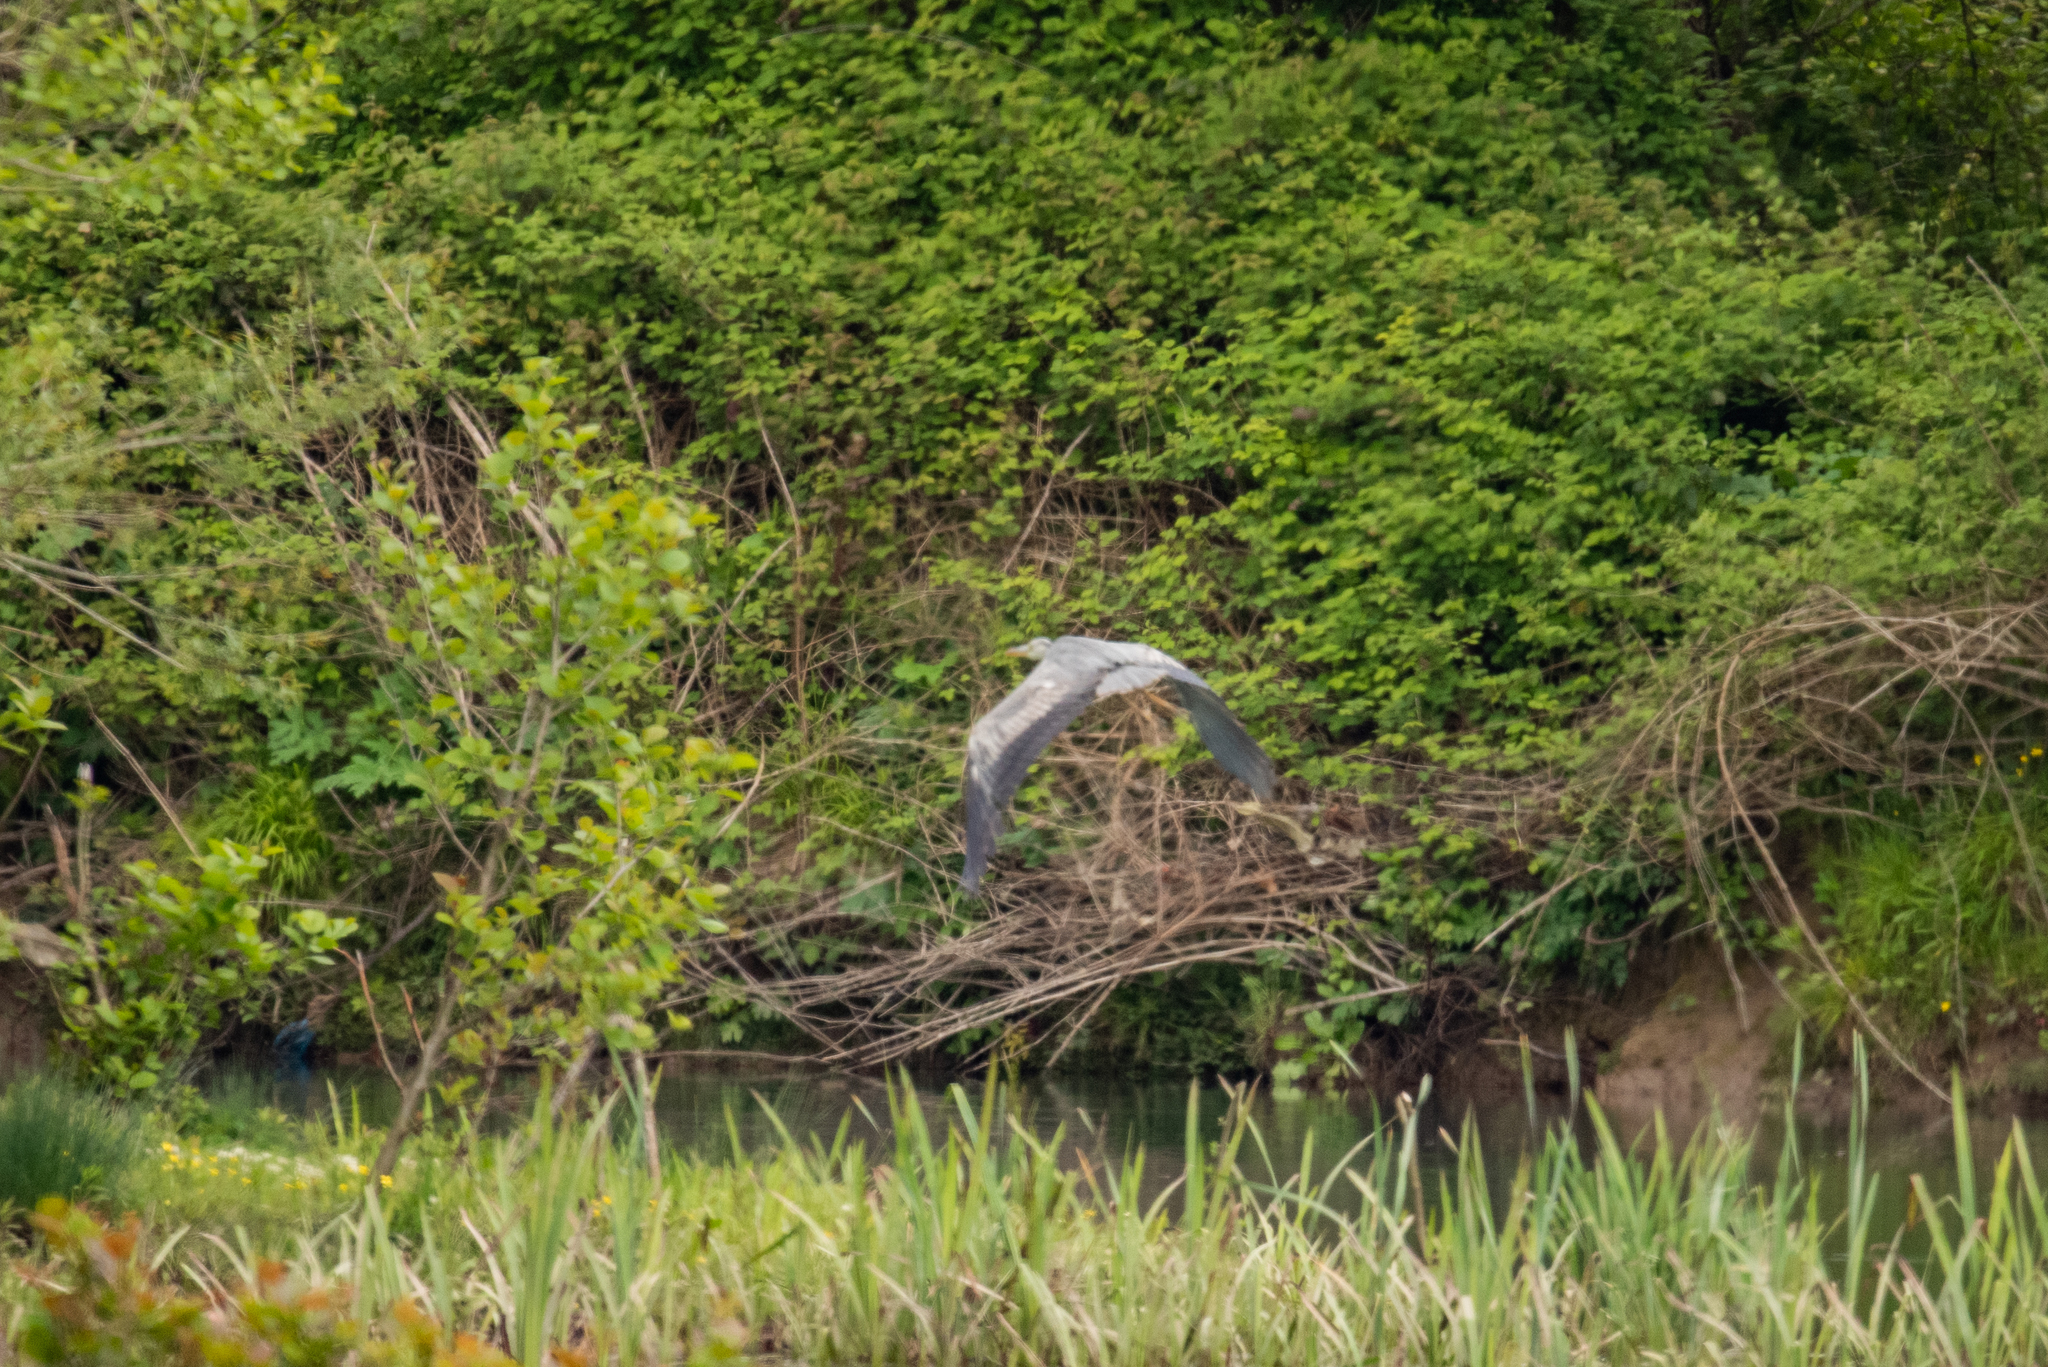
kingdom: Animalia
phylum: Chordata
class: Aves
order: Pelecaniformes
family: Ardeidae
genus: Ardea
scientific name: Ardea cinerea
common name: Grey heron
